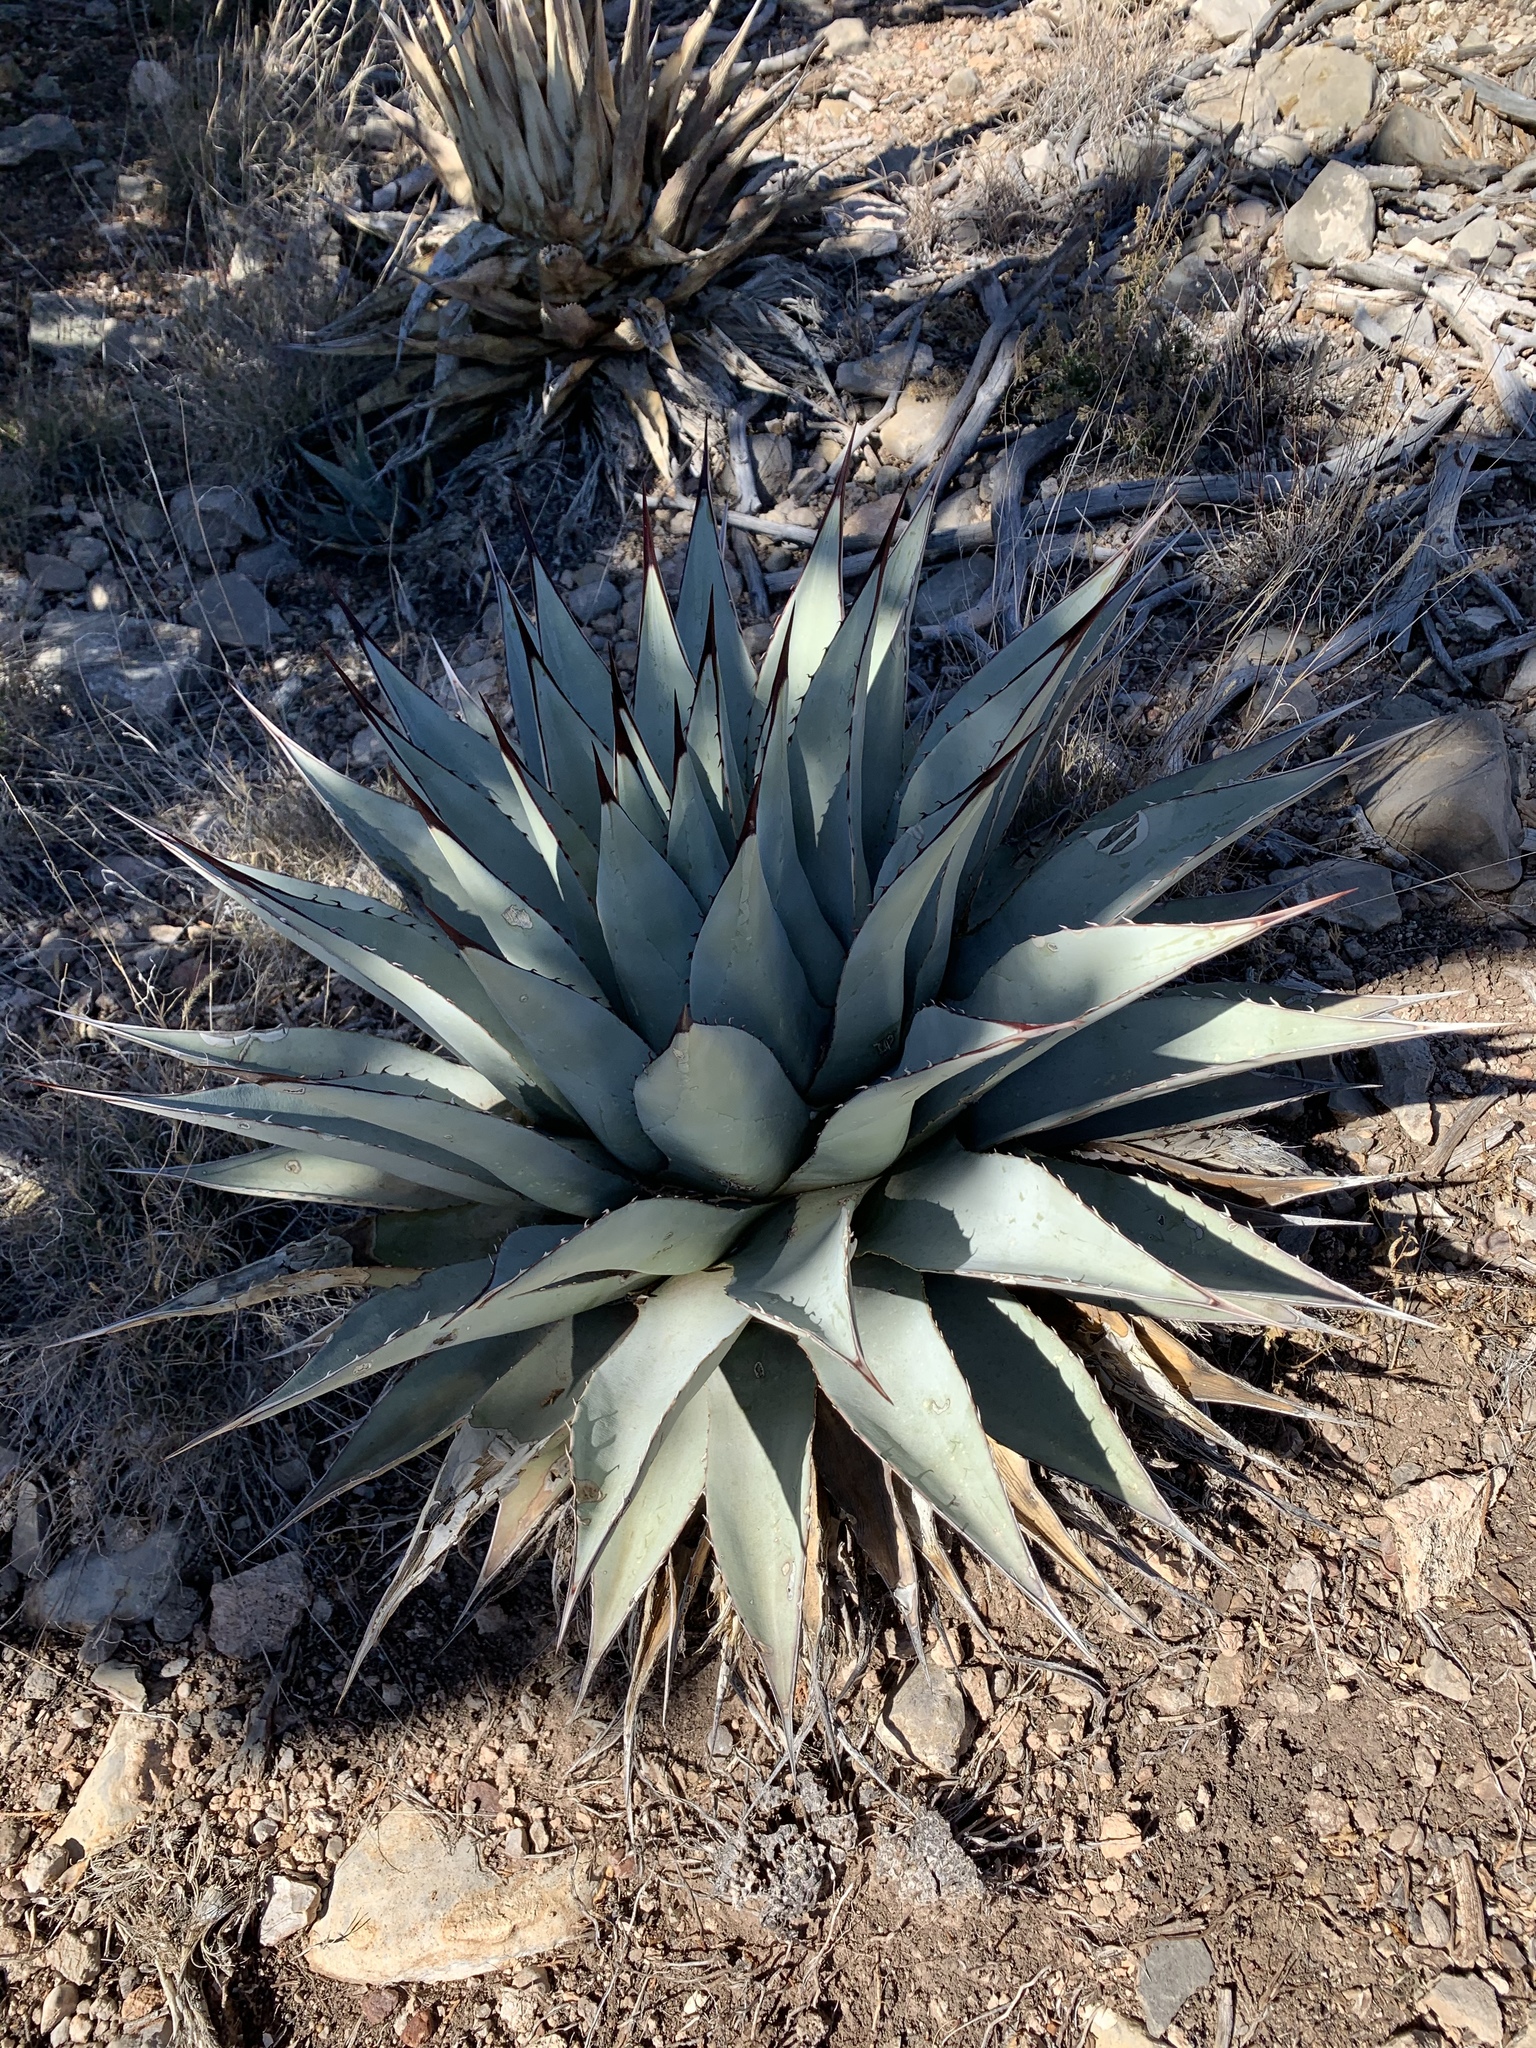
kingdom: Plantae
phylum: Tracheophyta
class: Liliopsida
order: Asparagales
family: Asparagaceae
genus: Agave
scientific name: Agave parryi
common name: Parry's agave
